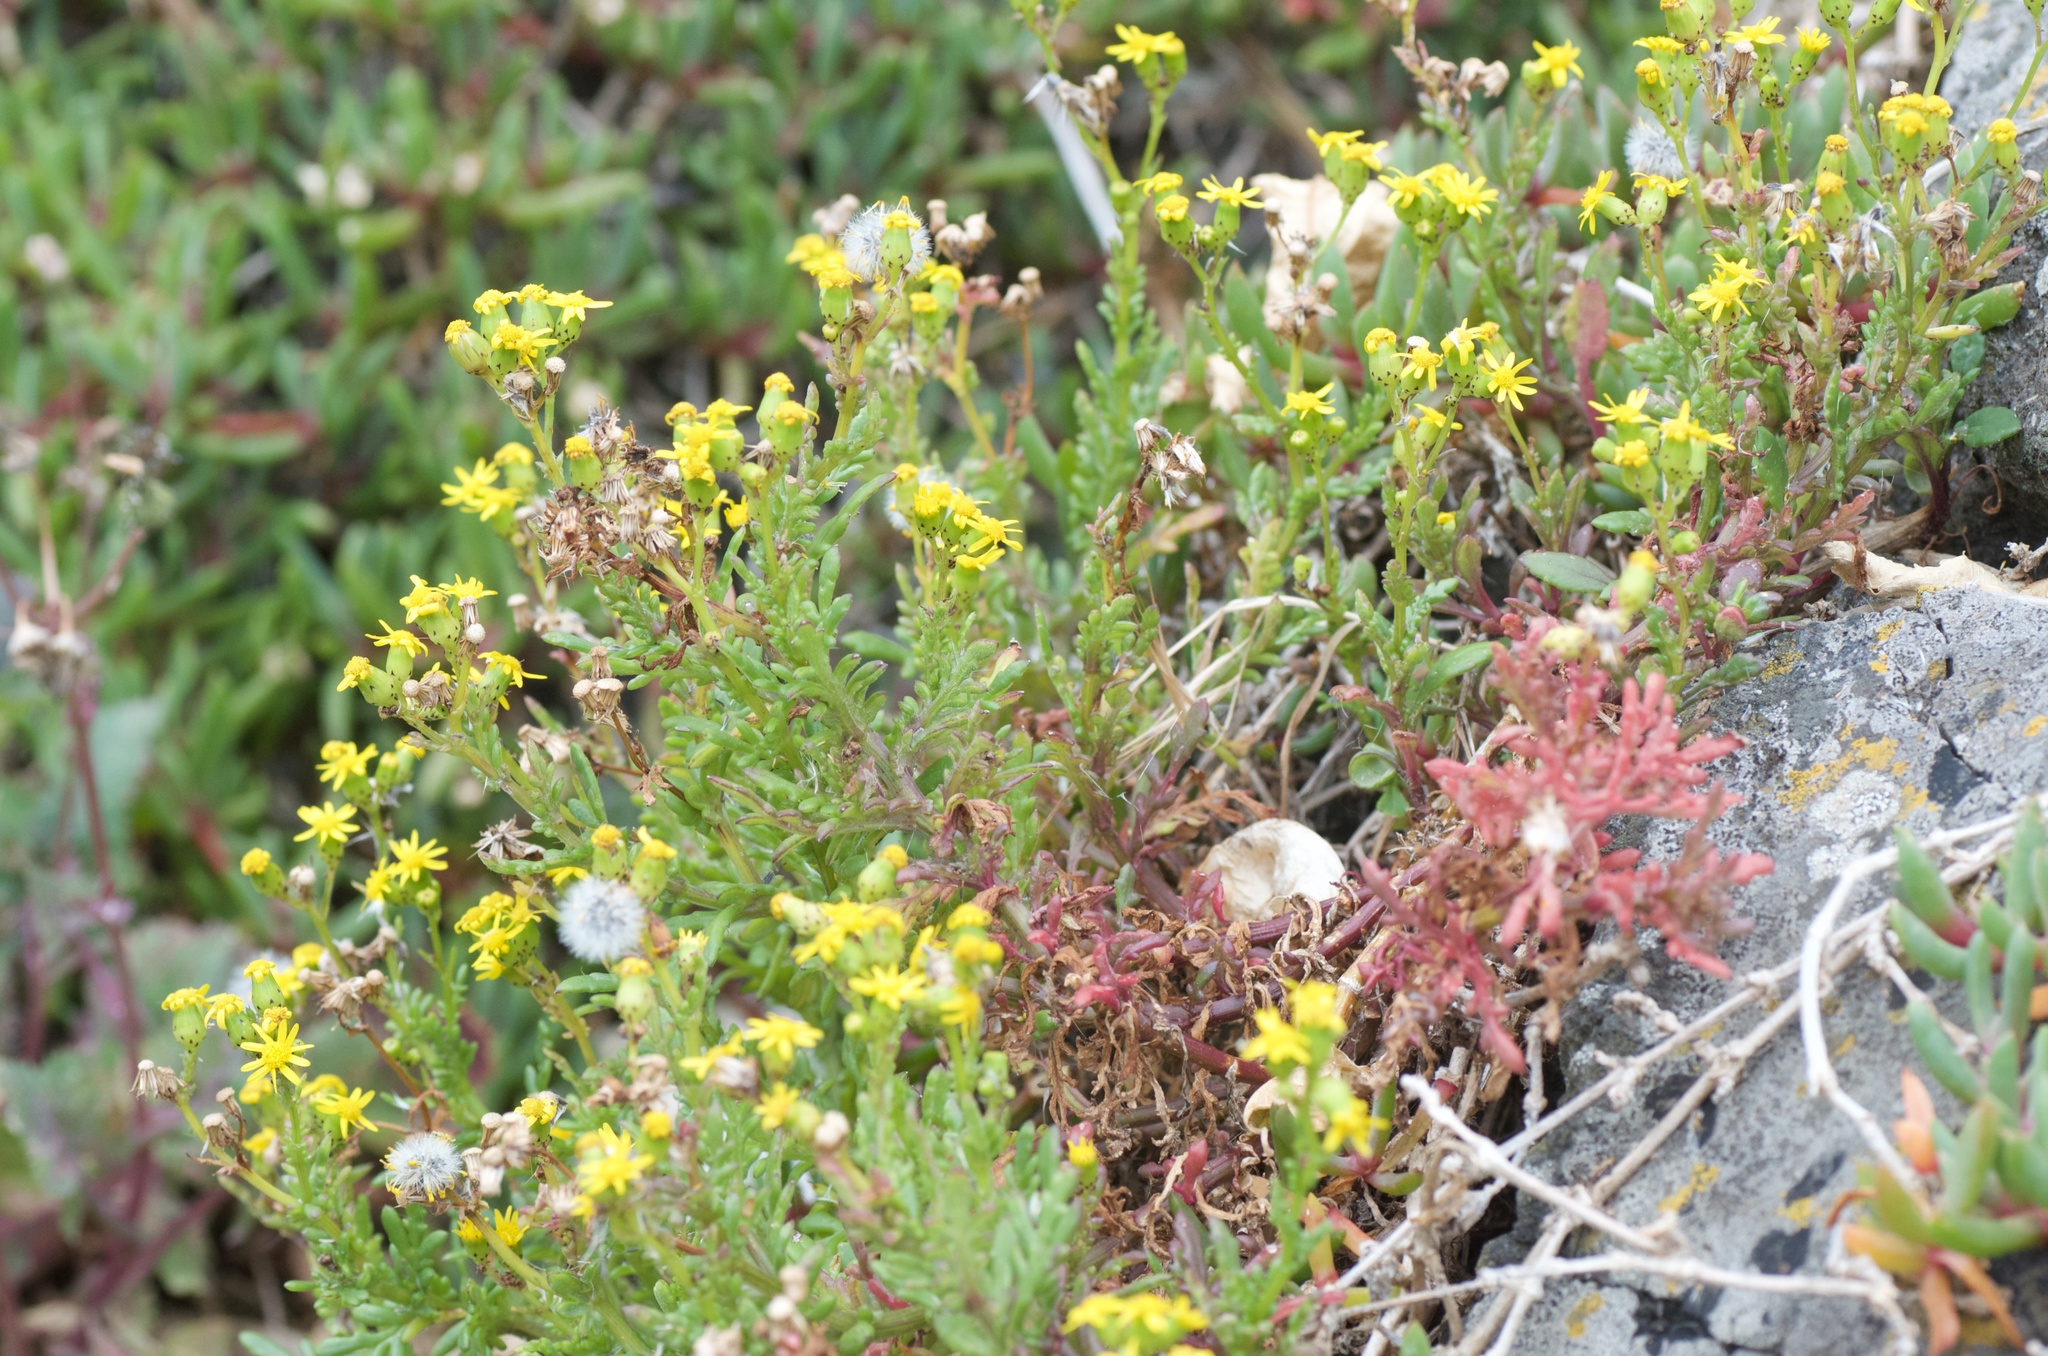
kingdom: Plantae
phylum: Tracheophyta
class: Magnoliopsida
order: Asterales
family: Asteraceae
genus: Senecio
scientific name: Senecio lautus
